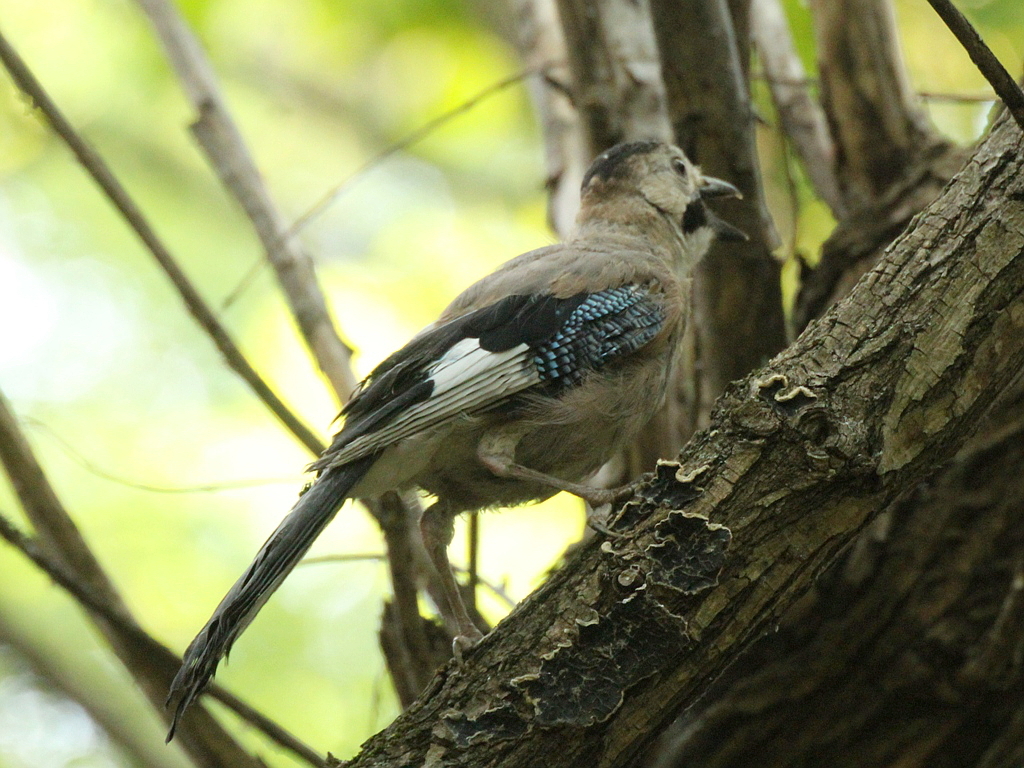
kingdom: Animalia
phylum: Chordata
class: Aves
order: Passeriformes
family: Corvidae
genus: Garrulus
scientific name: Garrulus glandarius
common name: Eurasian jay
